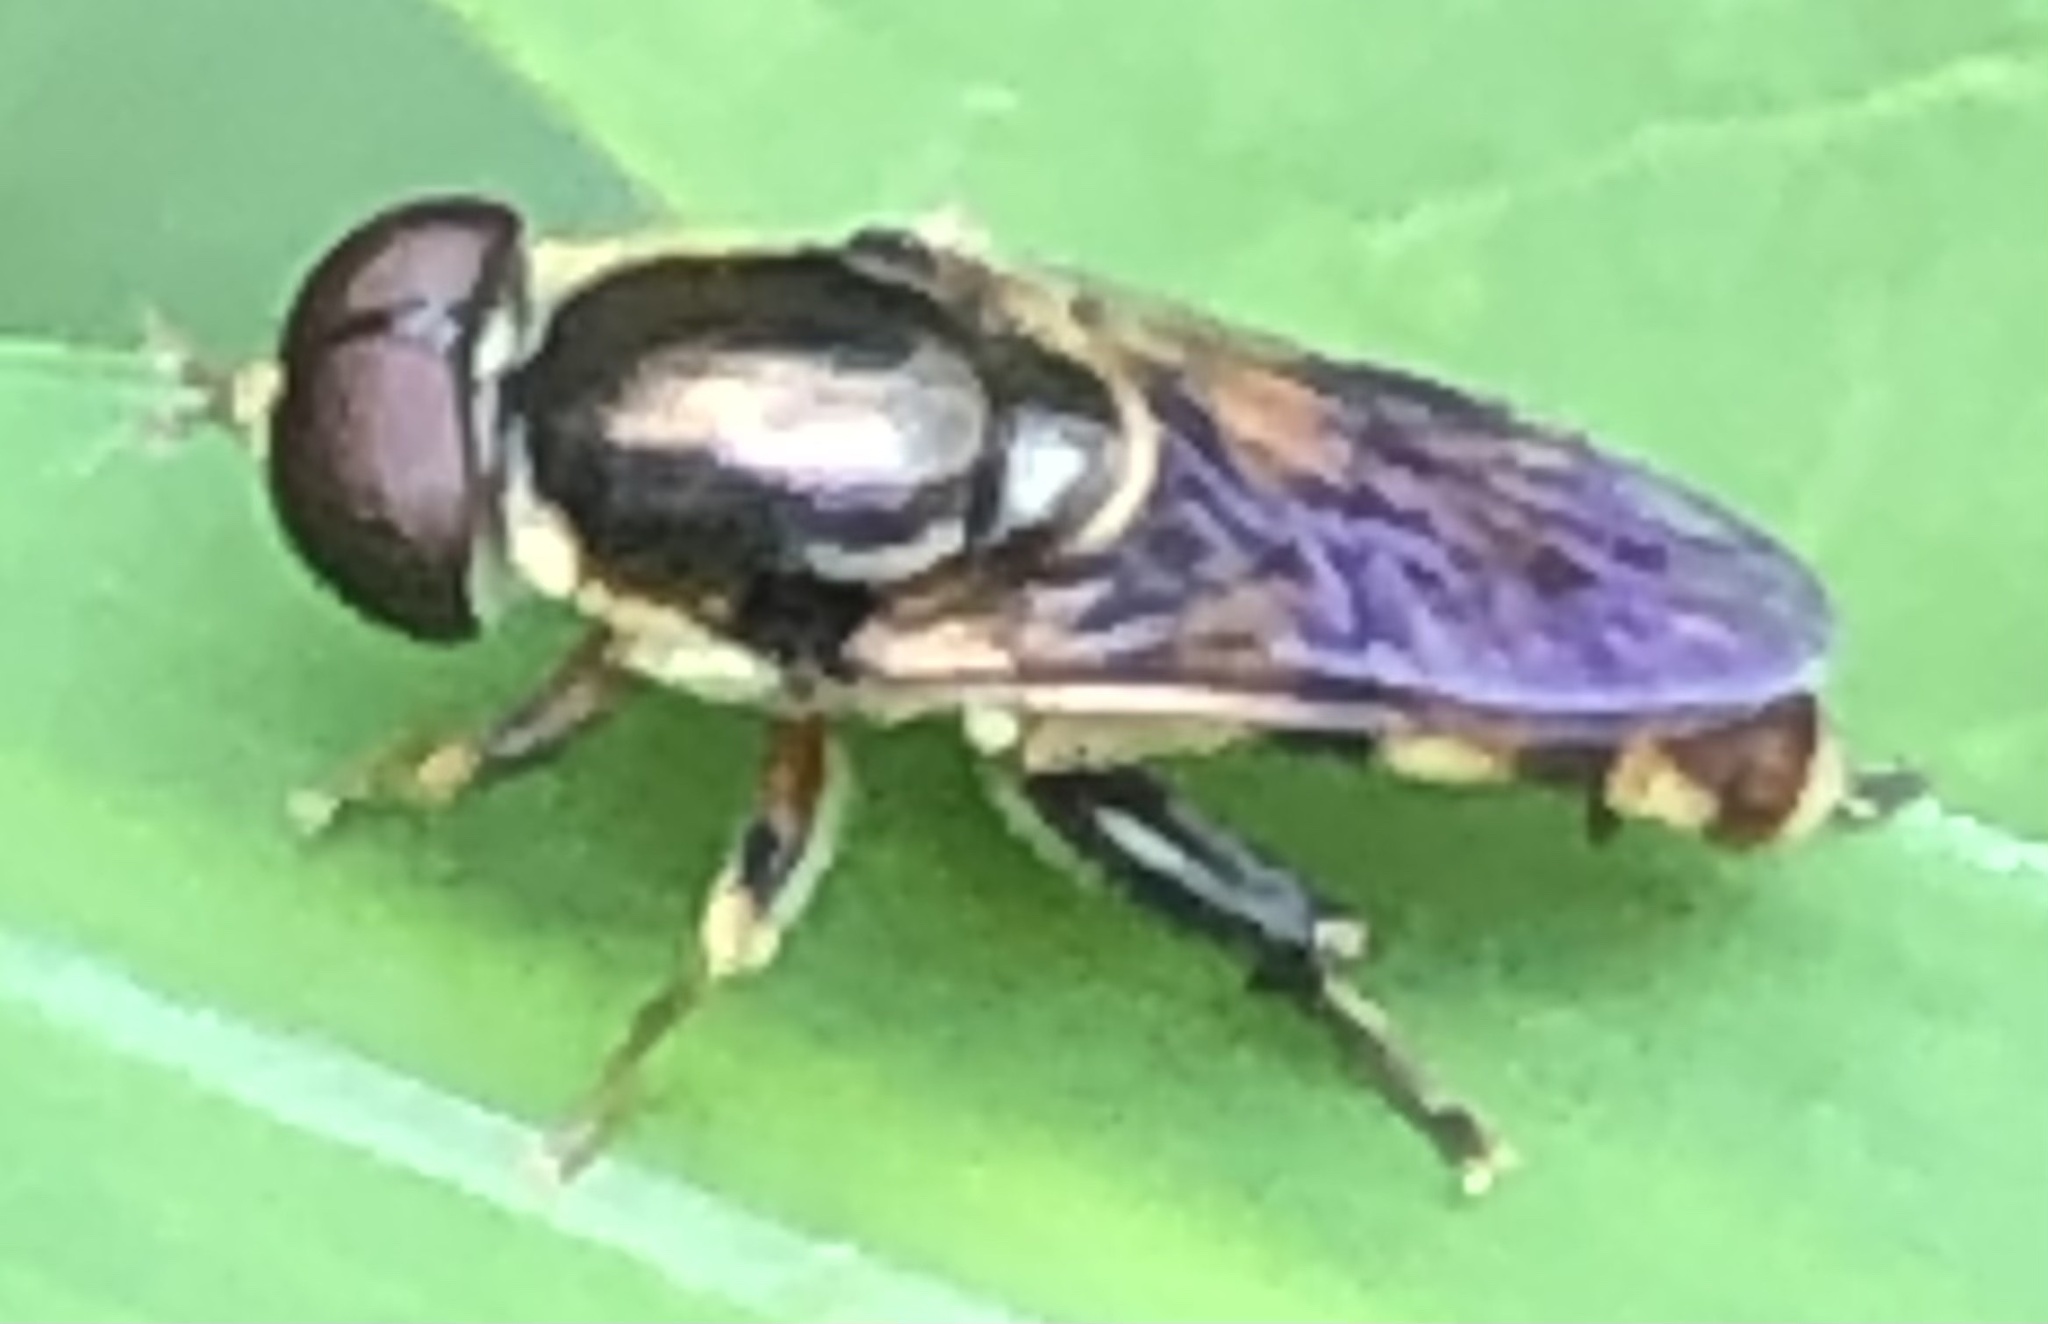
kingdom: Animalia
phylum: Arthropoda
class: Insecta
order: Diptera
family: Syrphidae
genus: Tropidia
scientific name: Tropidia albistylum
